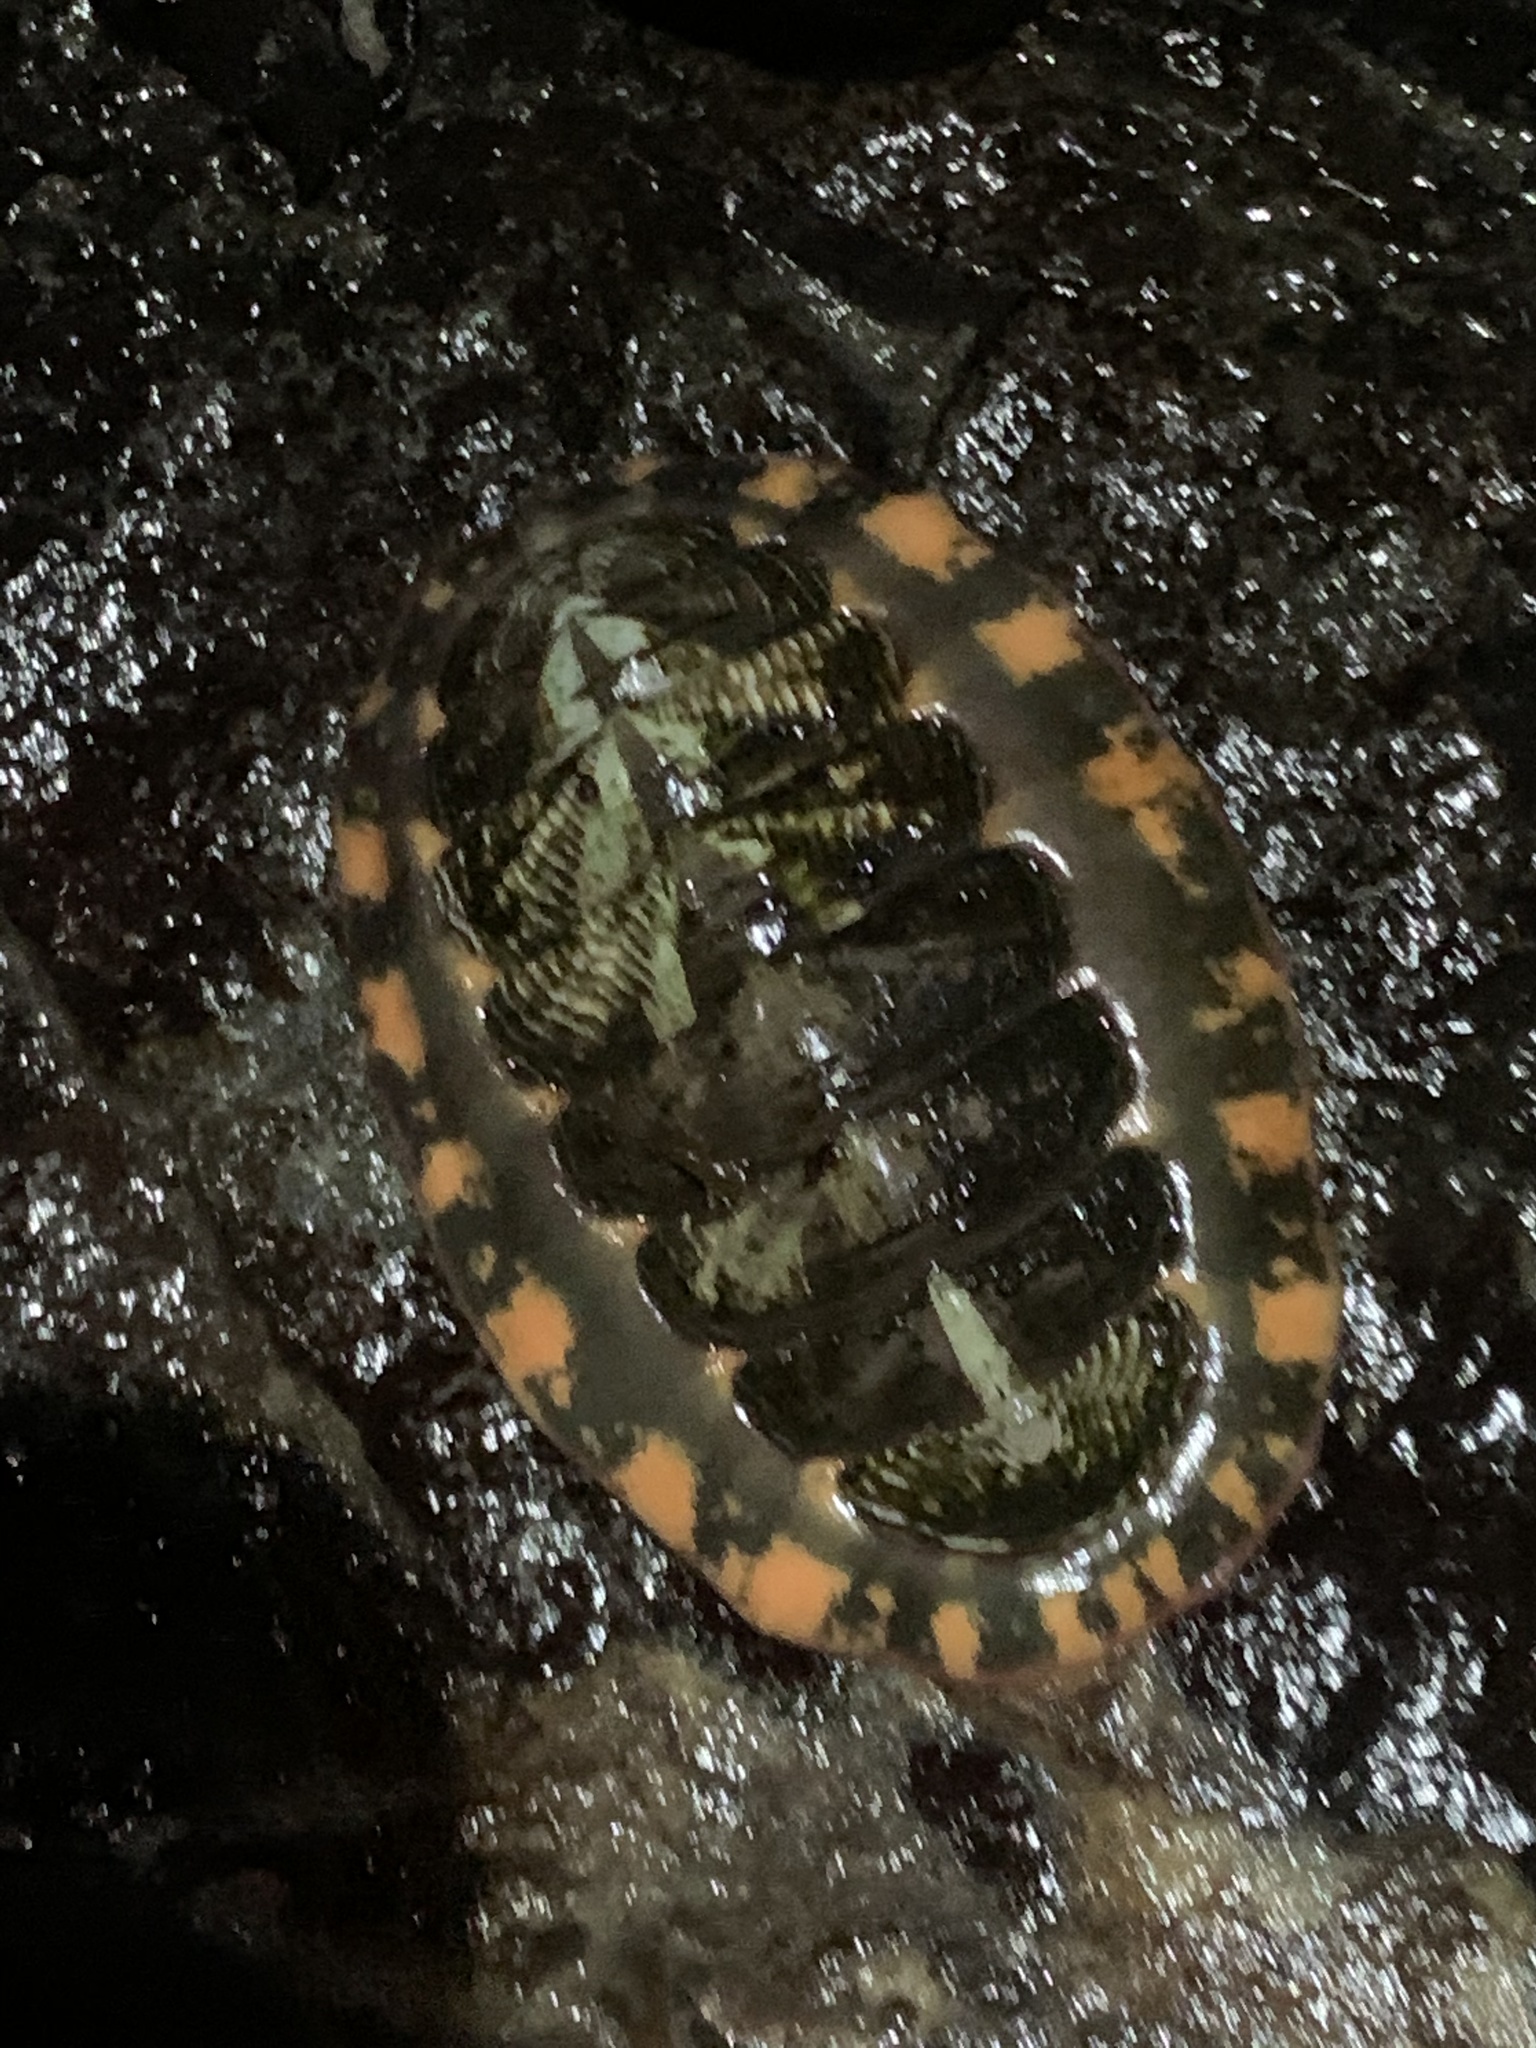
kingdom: Animalia
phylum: Mollusca
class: Polyplacophora
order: Chitonida
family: Tonicellidae
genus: Tonicella
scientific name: Tonicella lineata
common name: Lined chiton
